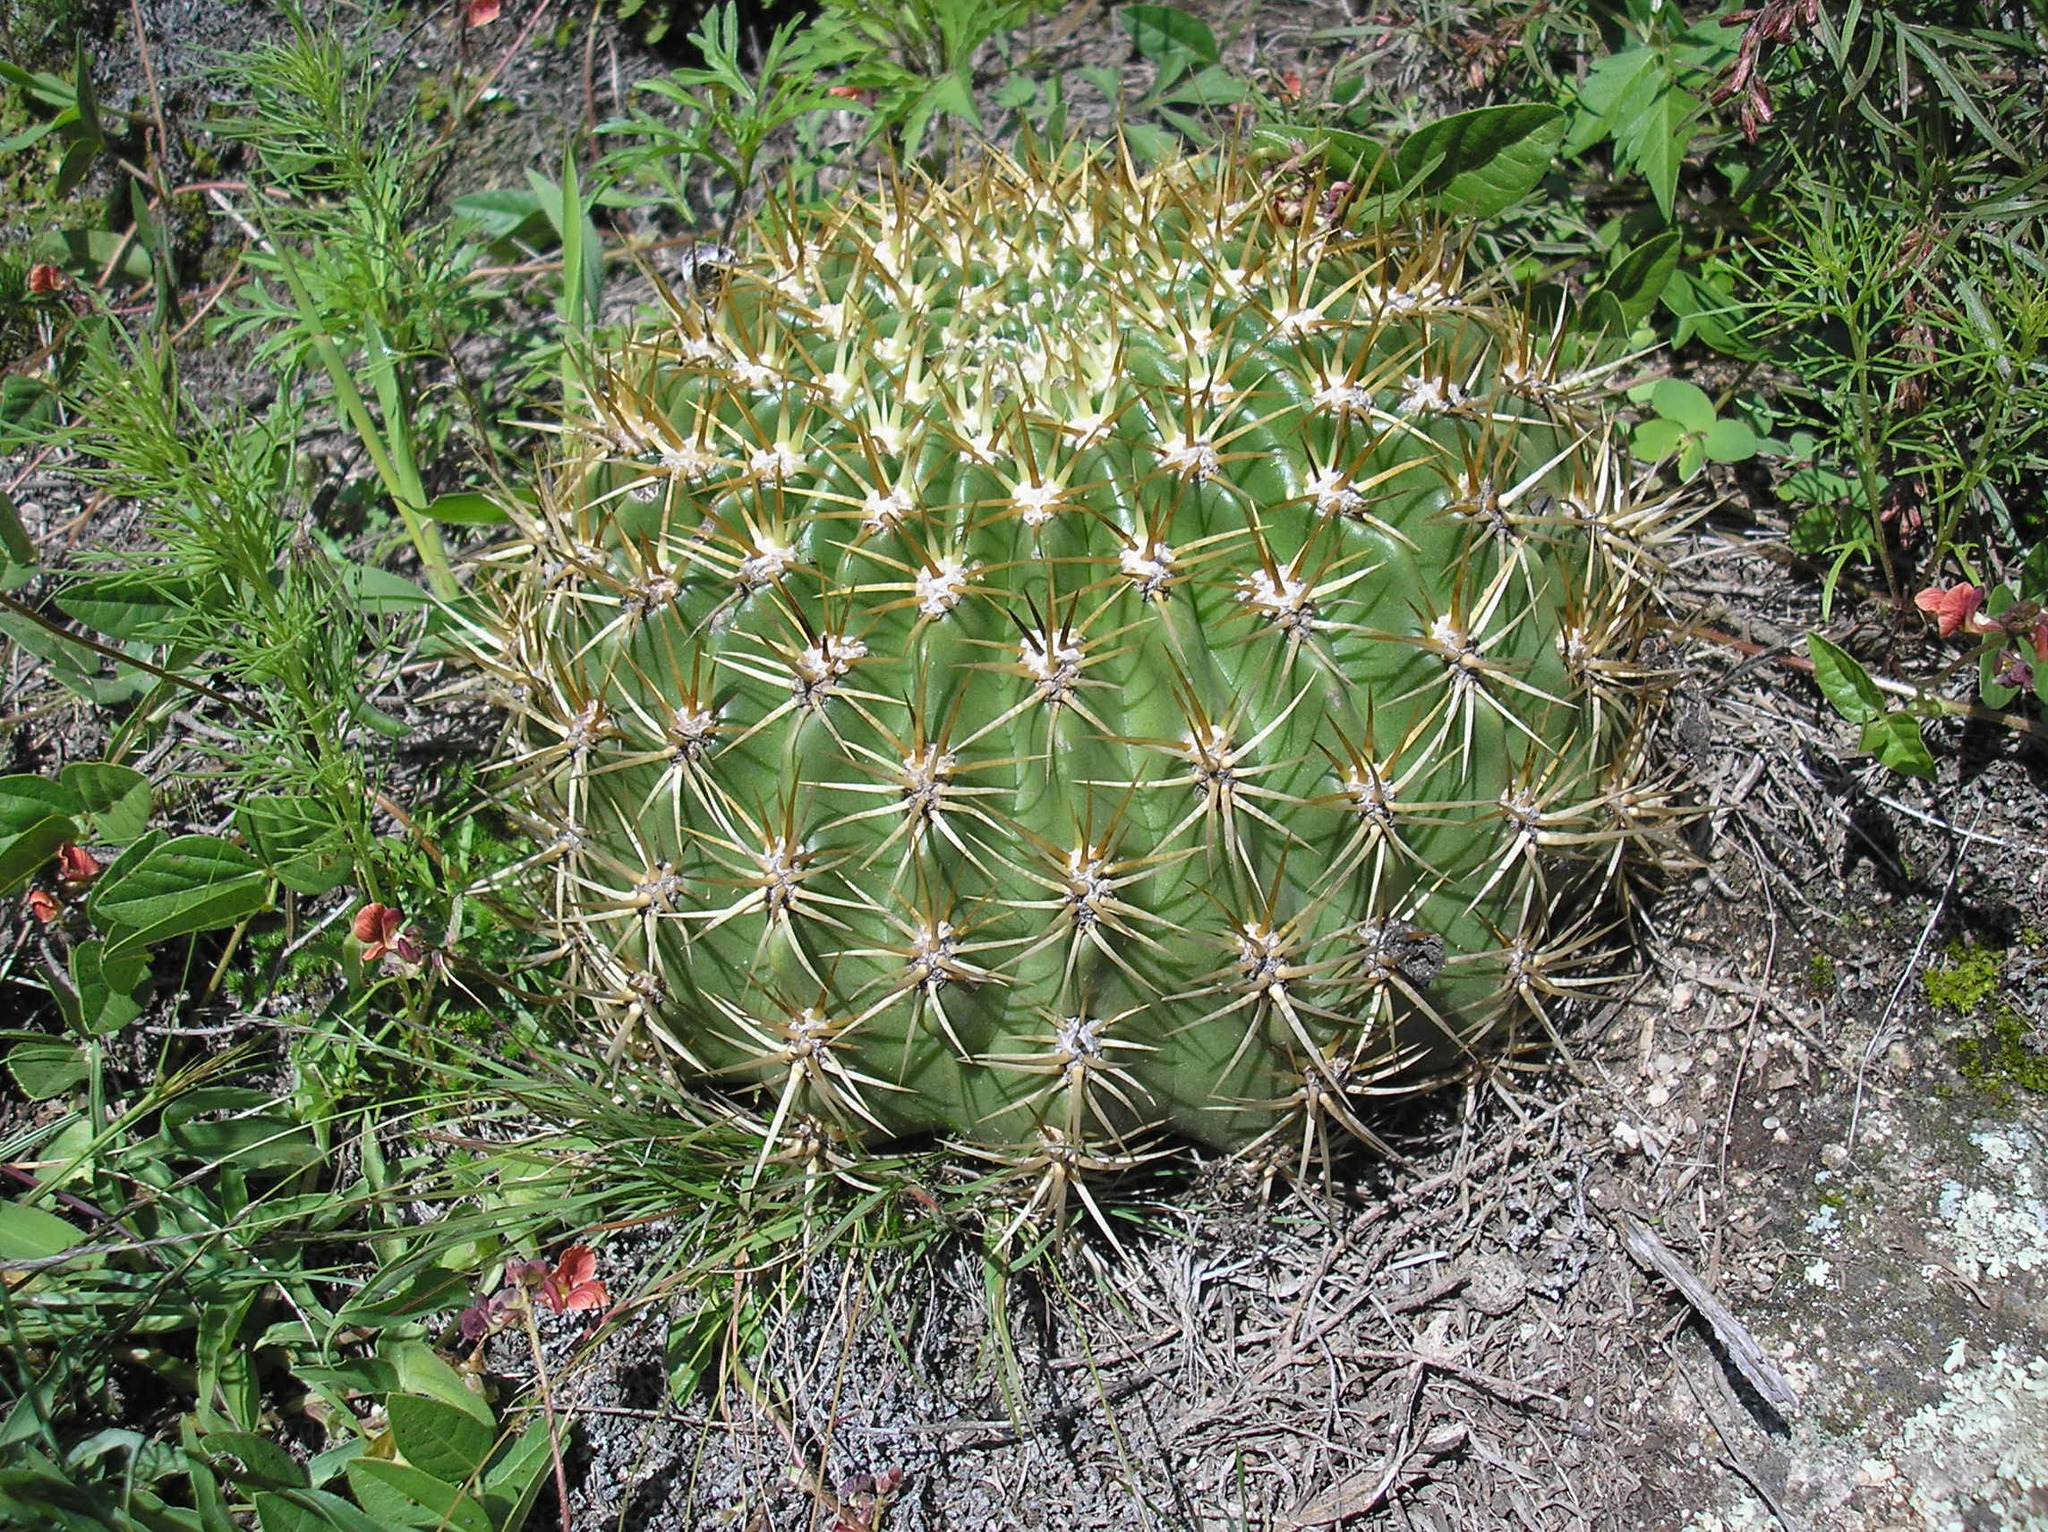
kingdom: Plantae
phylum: Tracheophyta
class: Magnoliopsida
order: Caryophyllales
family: Cactaceae
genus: Soehrensia
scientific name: Soehrensia bruchii
